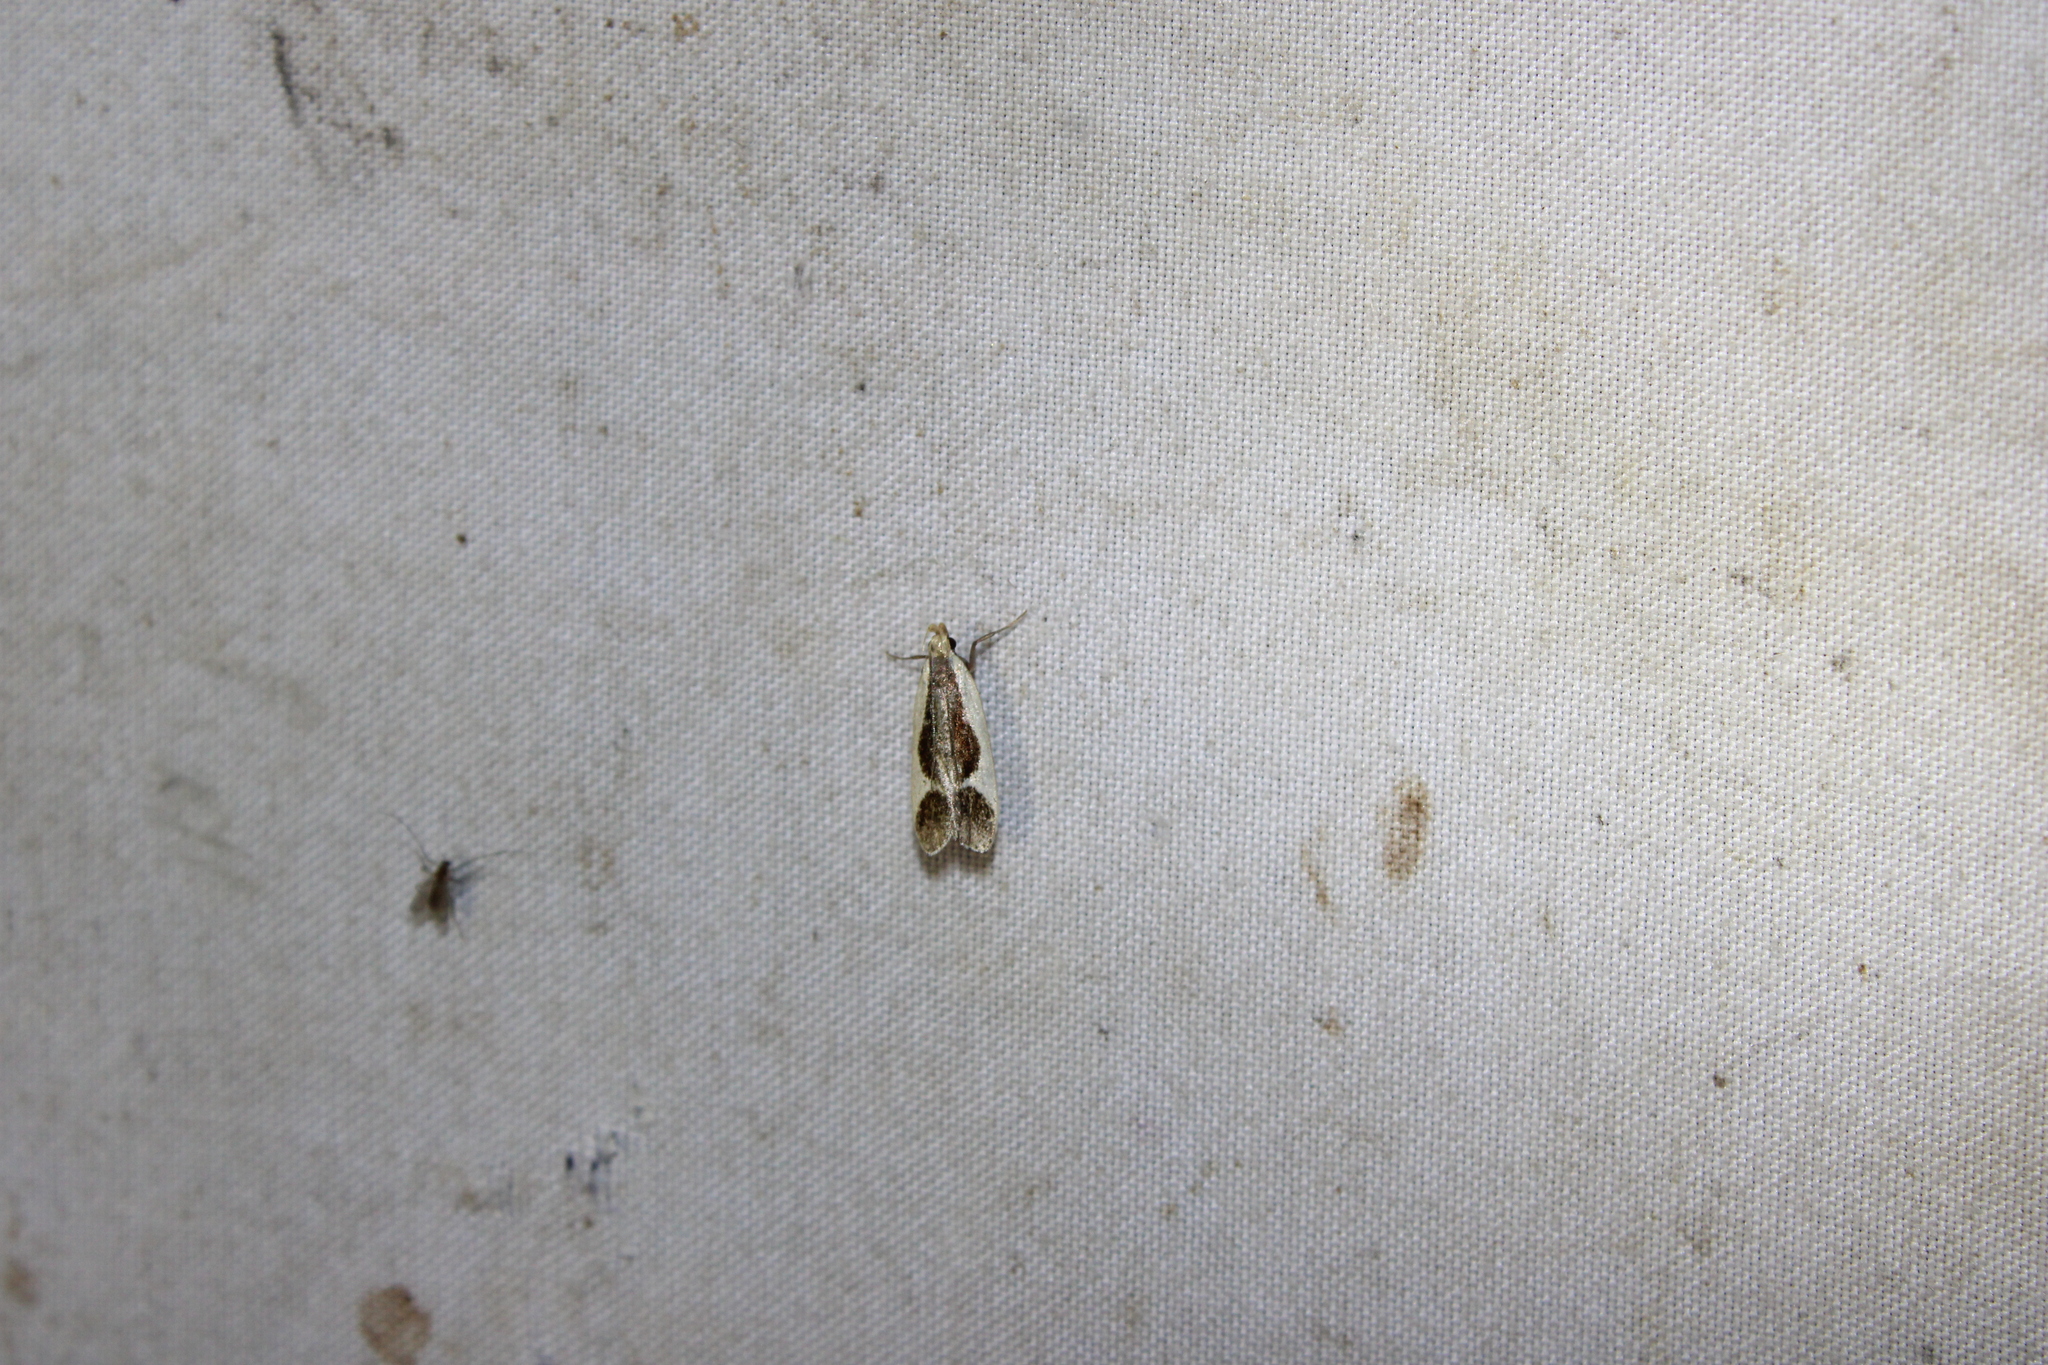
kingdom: Animalia
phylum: Arthropoda
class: Insecta
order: Lepidoptera
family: Gelechiidae
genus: Dichomeris
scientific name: Dichomeris flavocostella
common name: Cream-edged dichomeris moth
